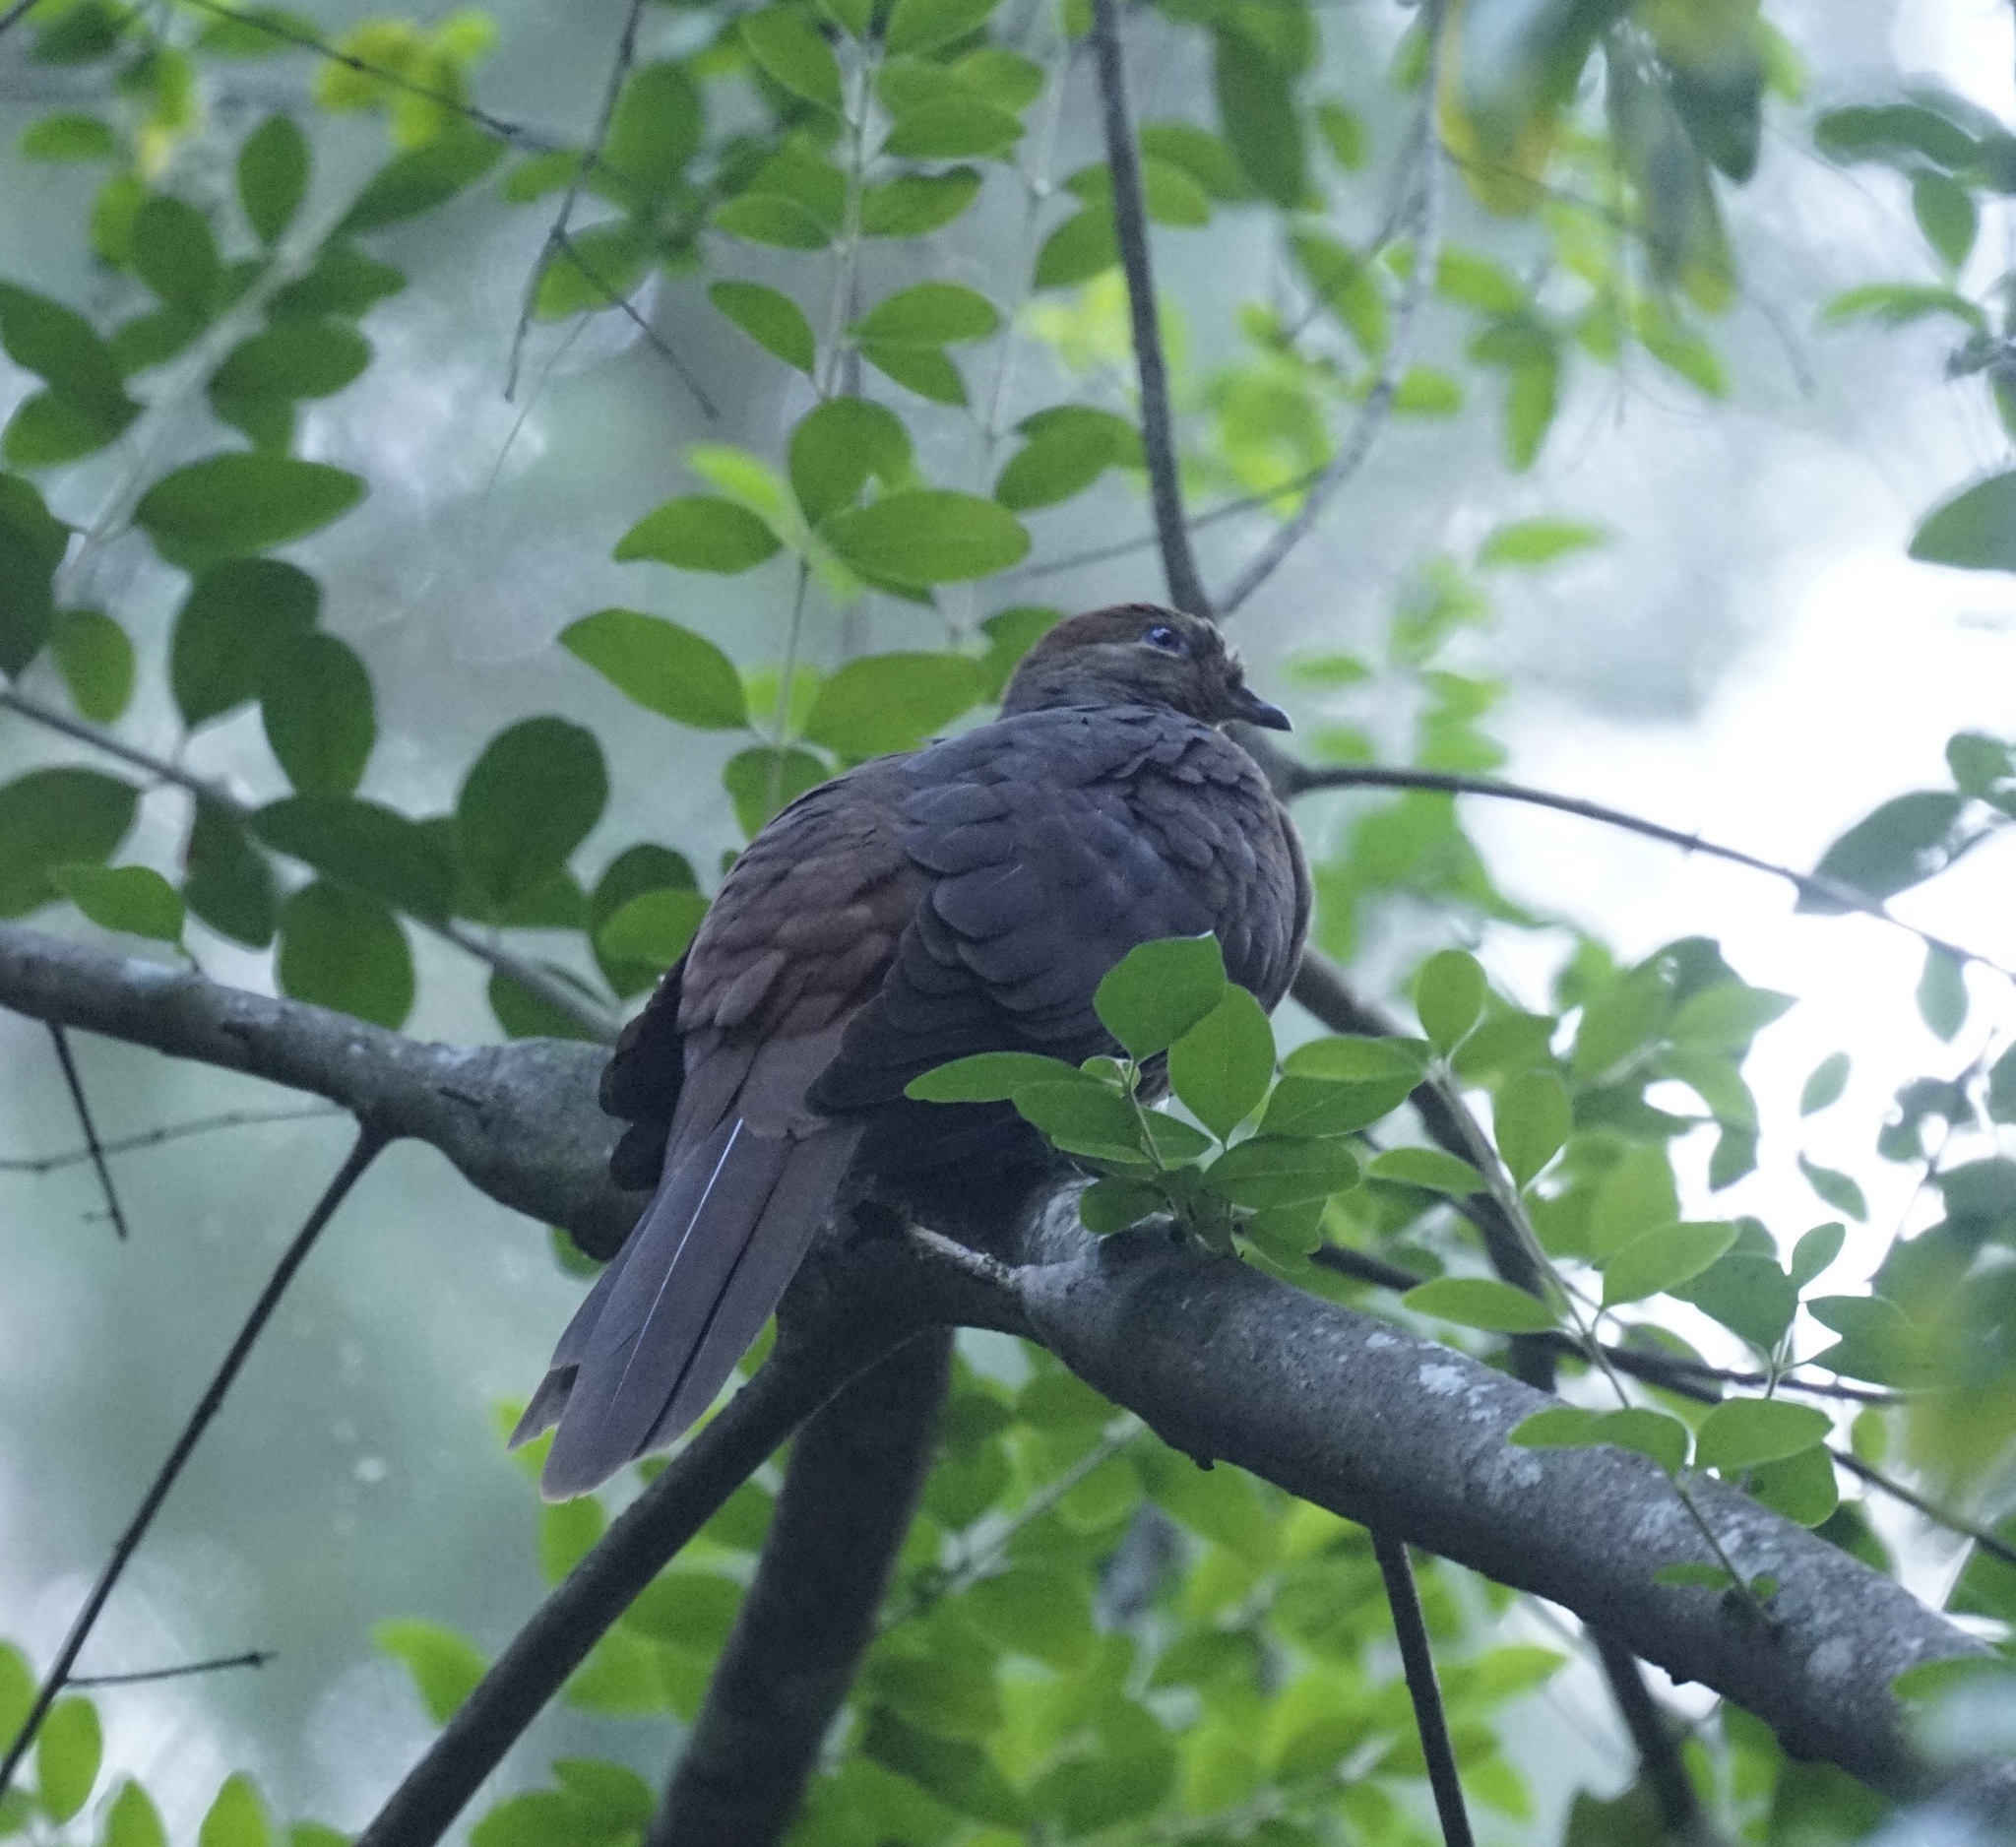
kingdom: Animalia
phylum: Chordata
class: Aves
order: Columbiformes
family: Columbidae
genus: Macropygia
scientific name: Macropygia phasianella
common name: Brown cuckoo-dove
